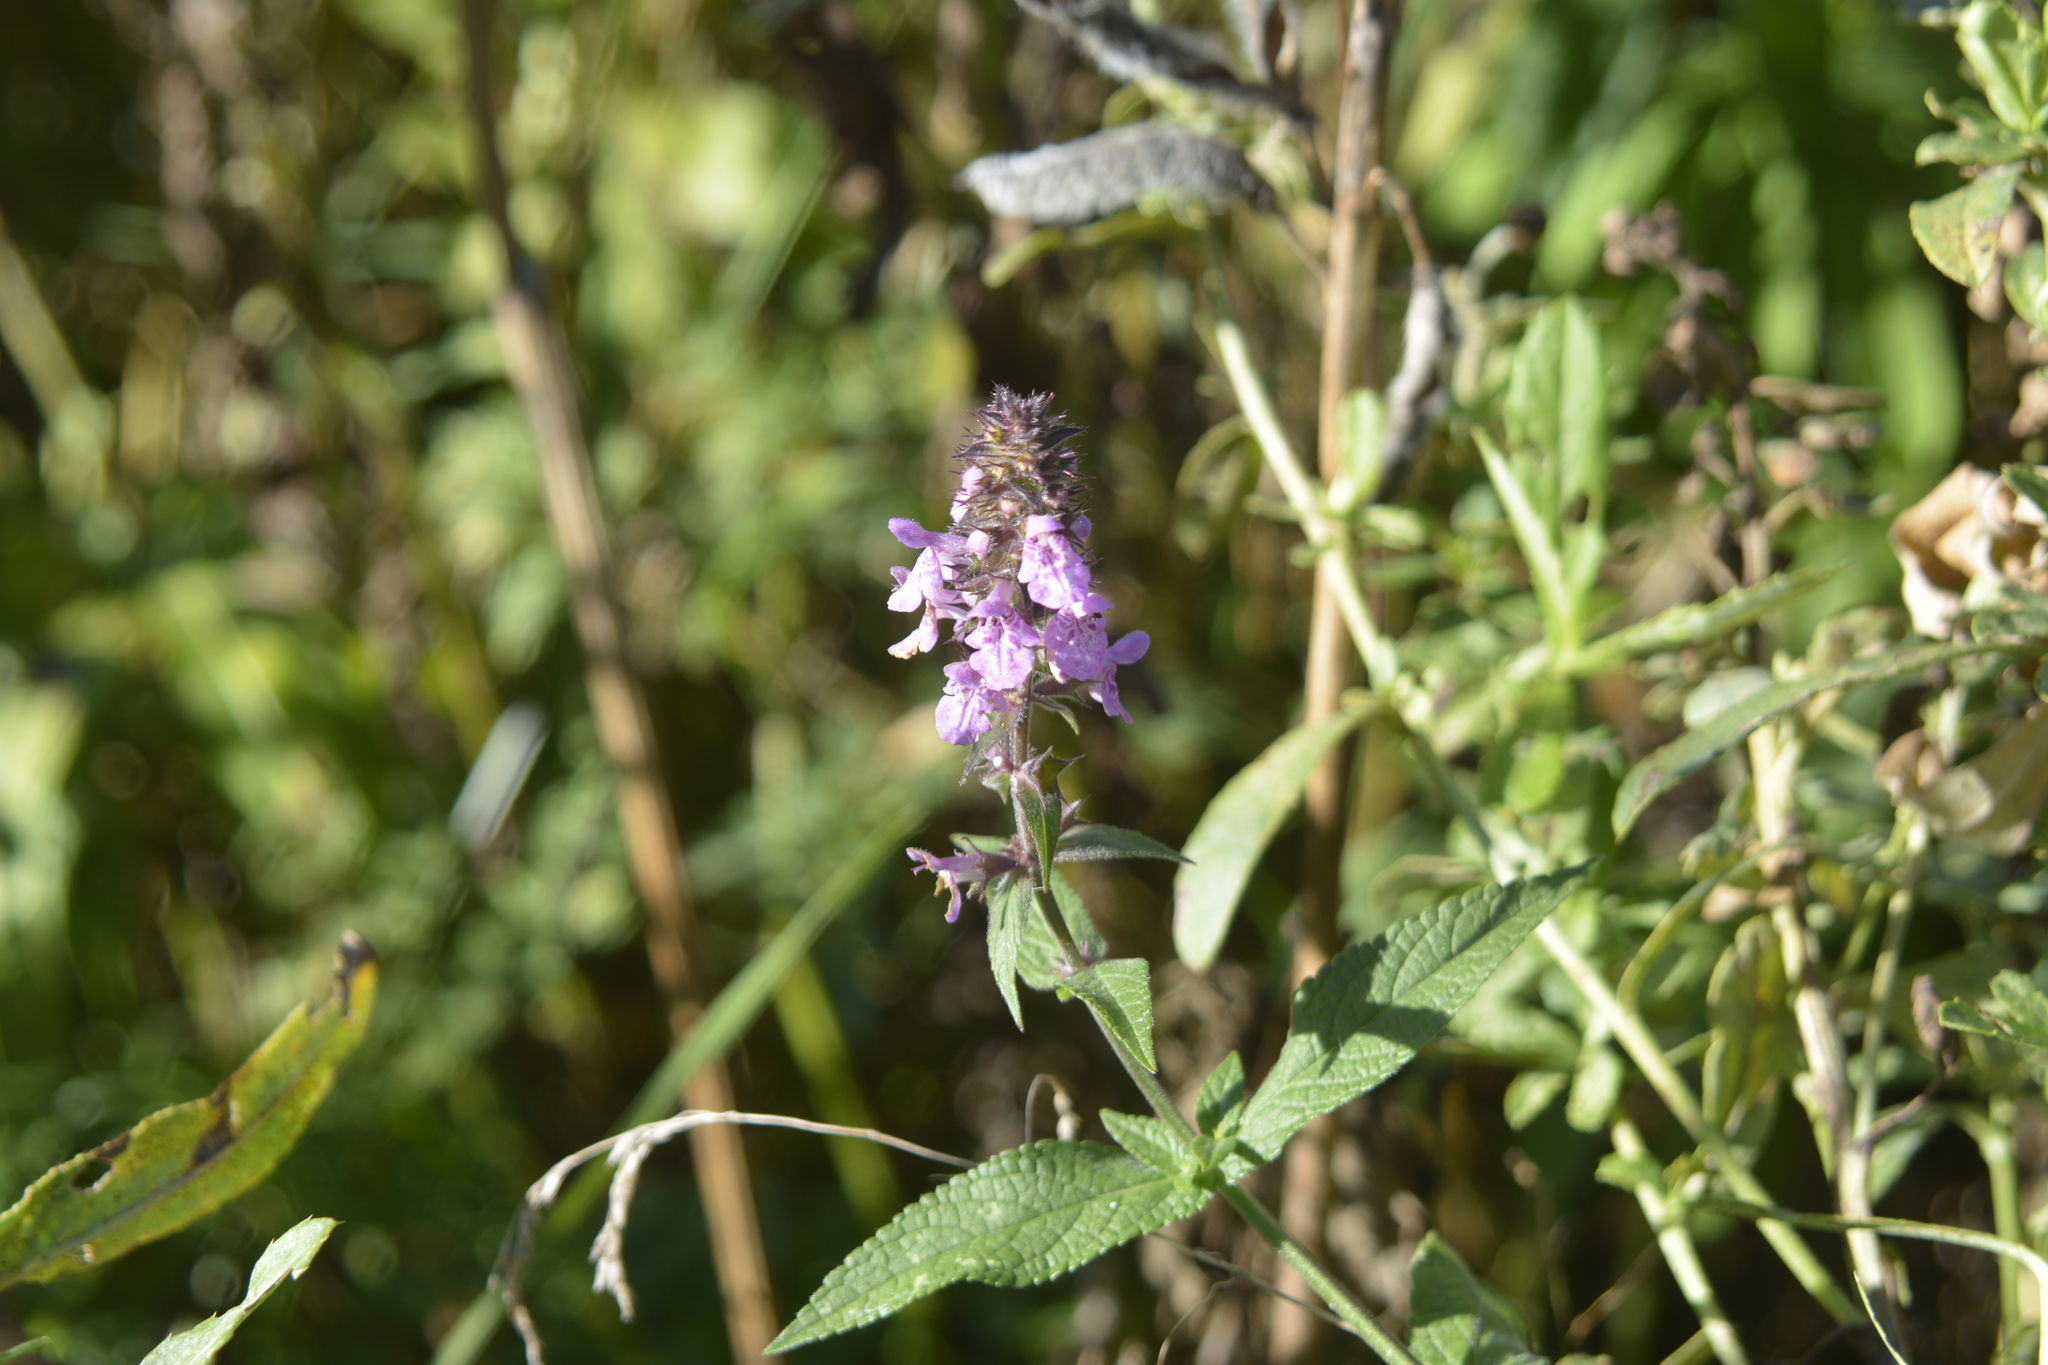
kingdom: Plantae
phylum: Tracheophyta
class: Magnoliopsida
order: Lamiales
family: Lamiaceae
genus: Stachys
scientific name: Stachys palustris
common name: Marsh woundwort
